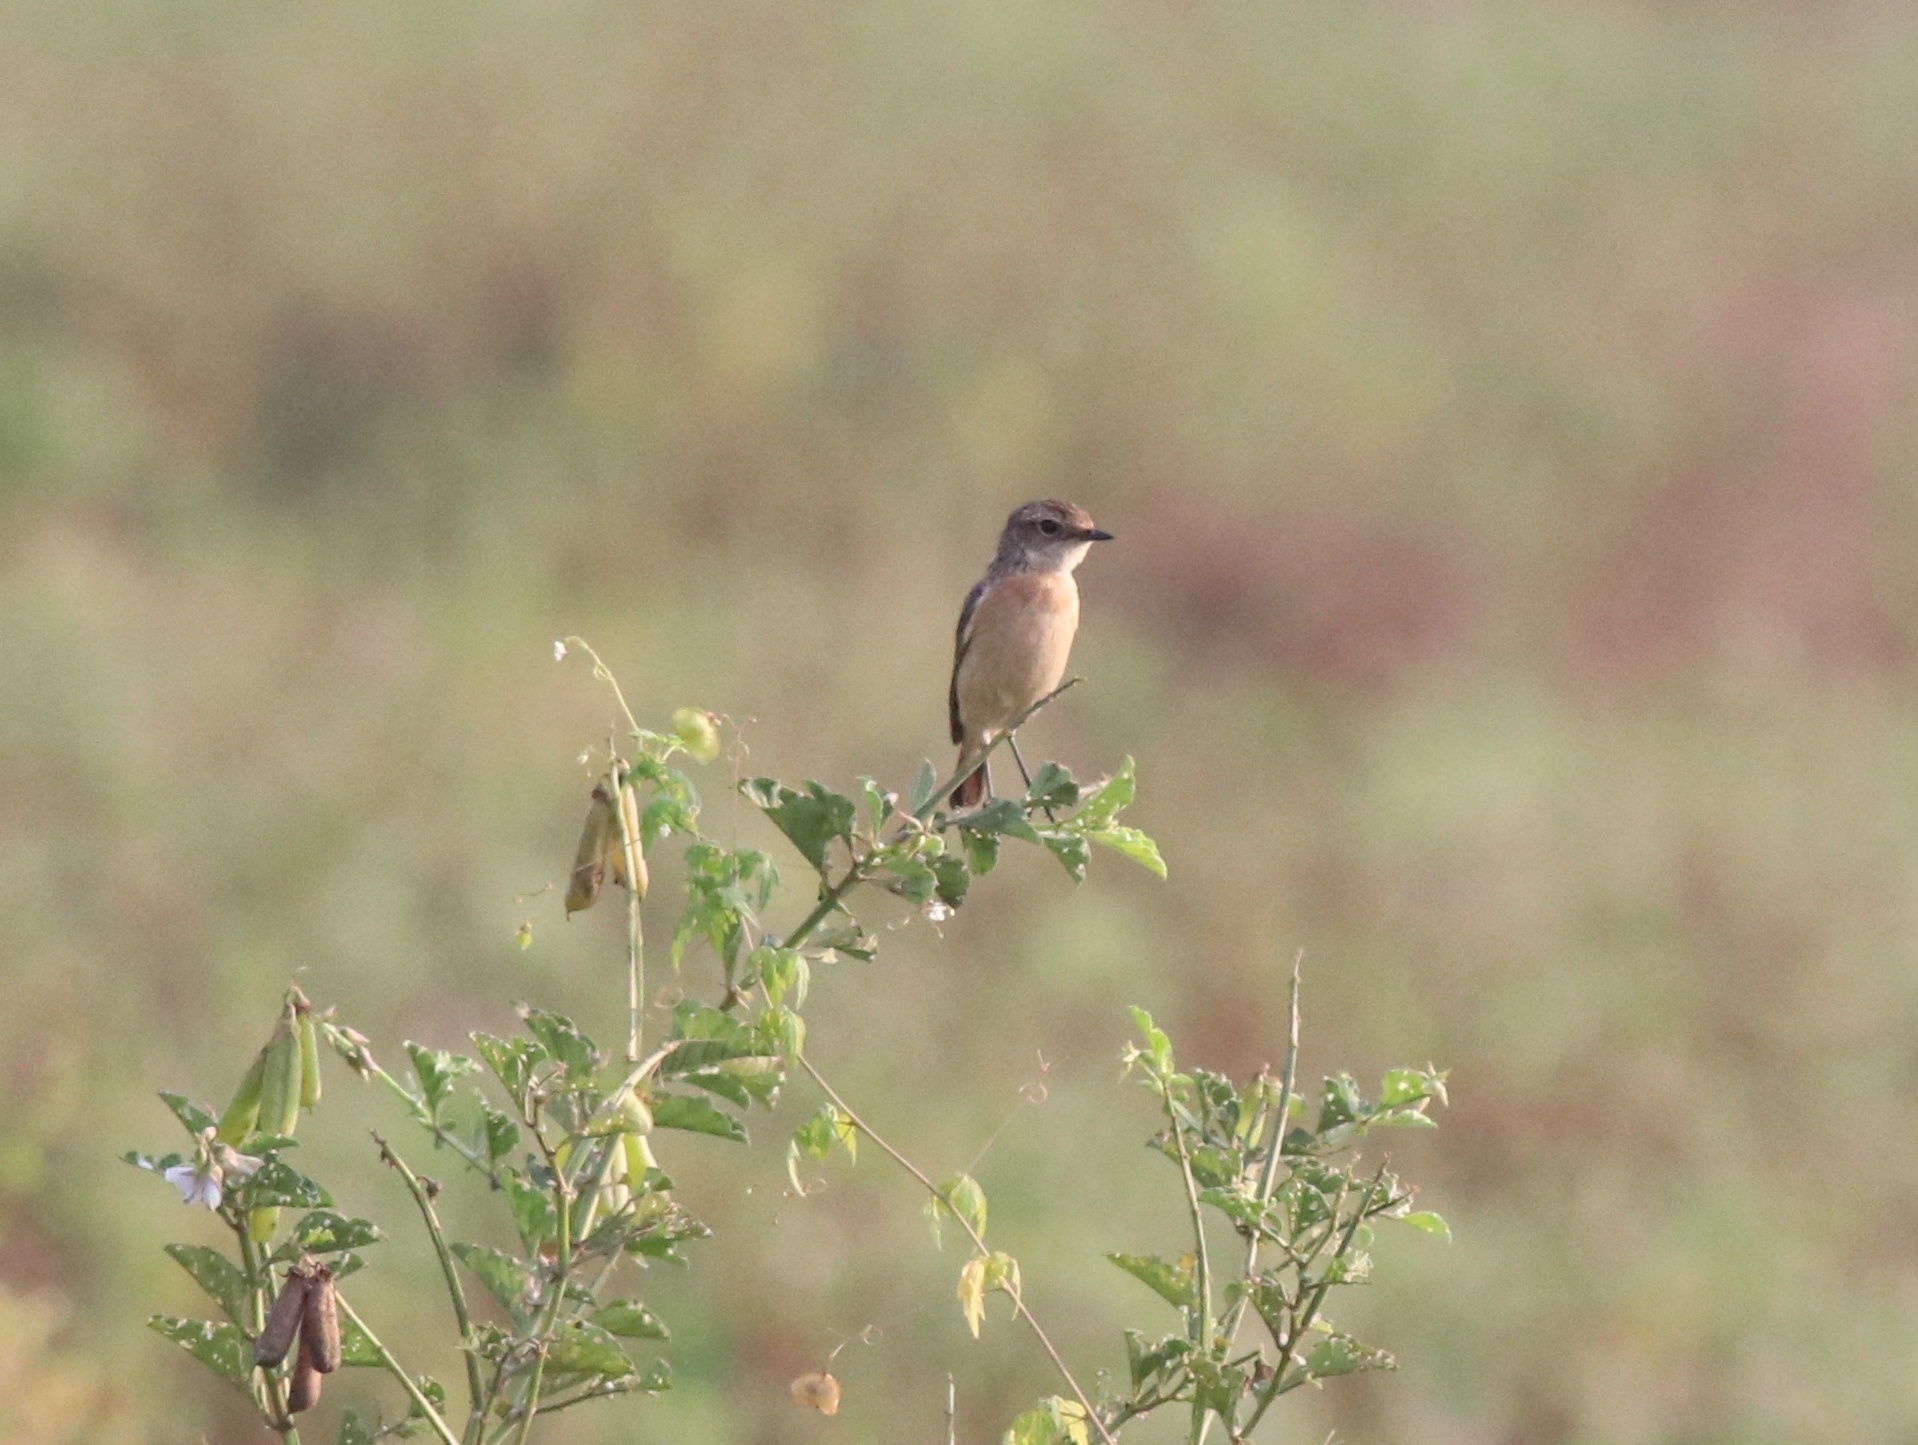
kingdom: Animalia
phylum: Chordata
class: Aves
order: Passeriformes
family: Muscicapidae
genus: Saxicola
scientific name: Saxicola maurus
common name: Siberian stonechat
